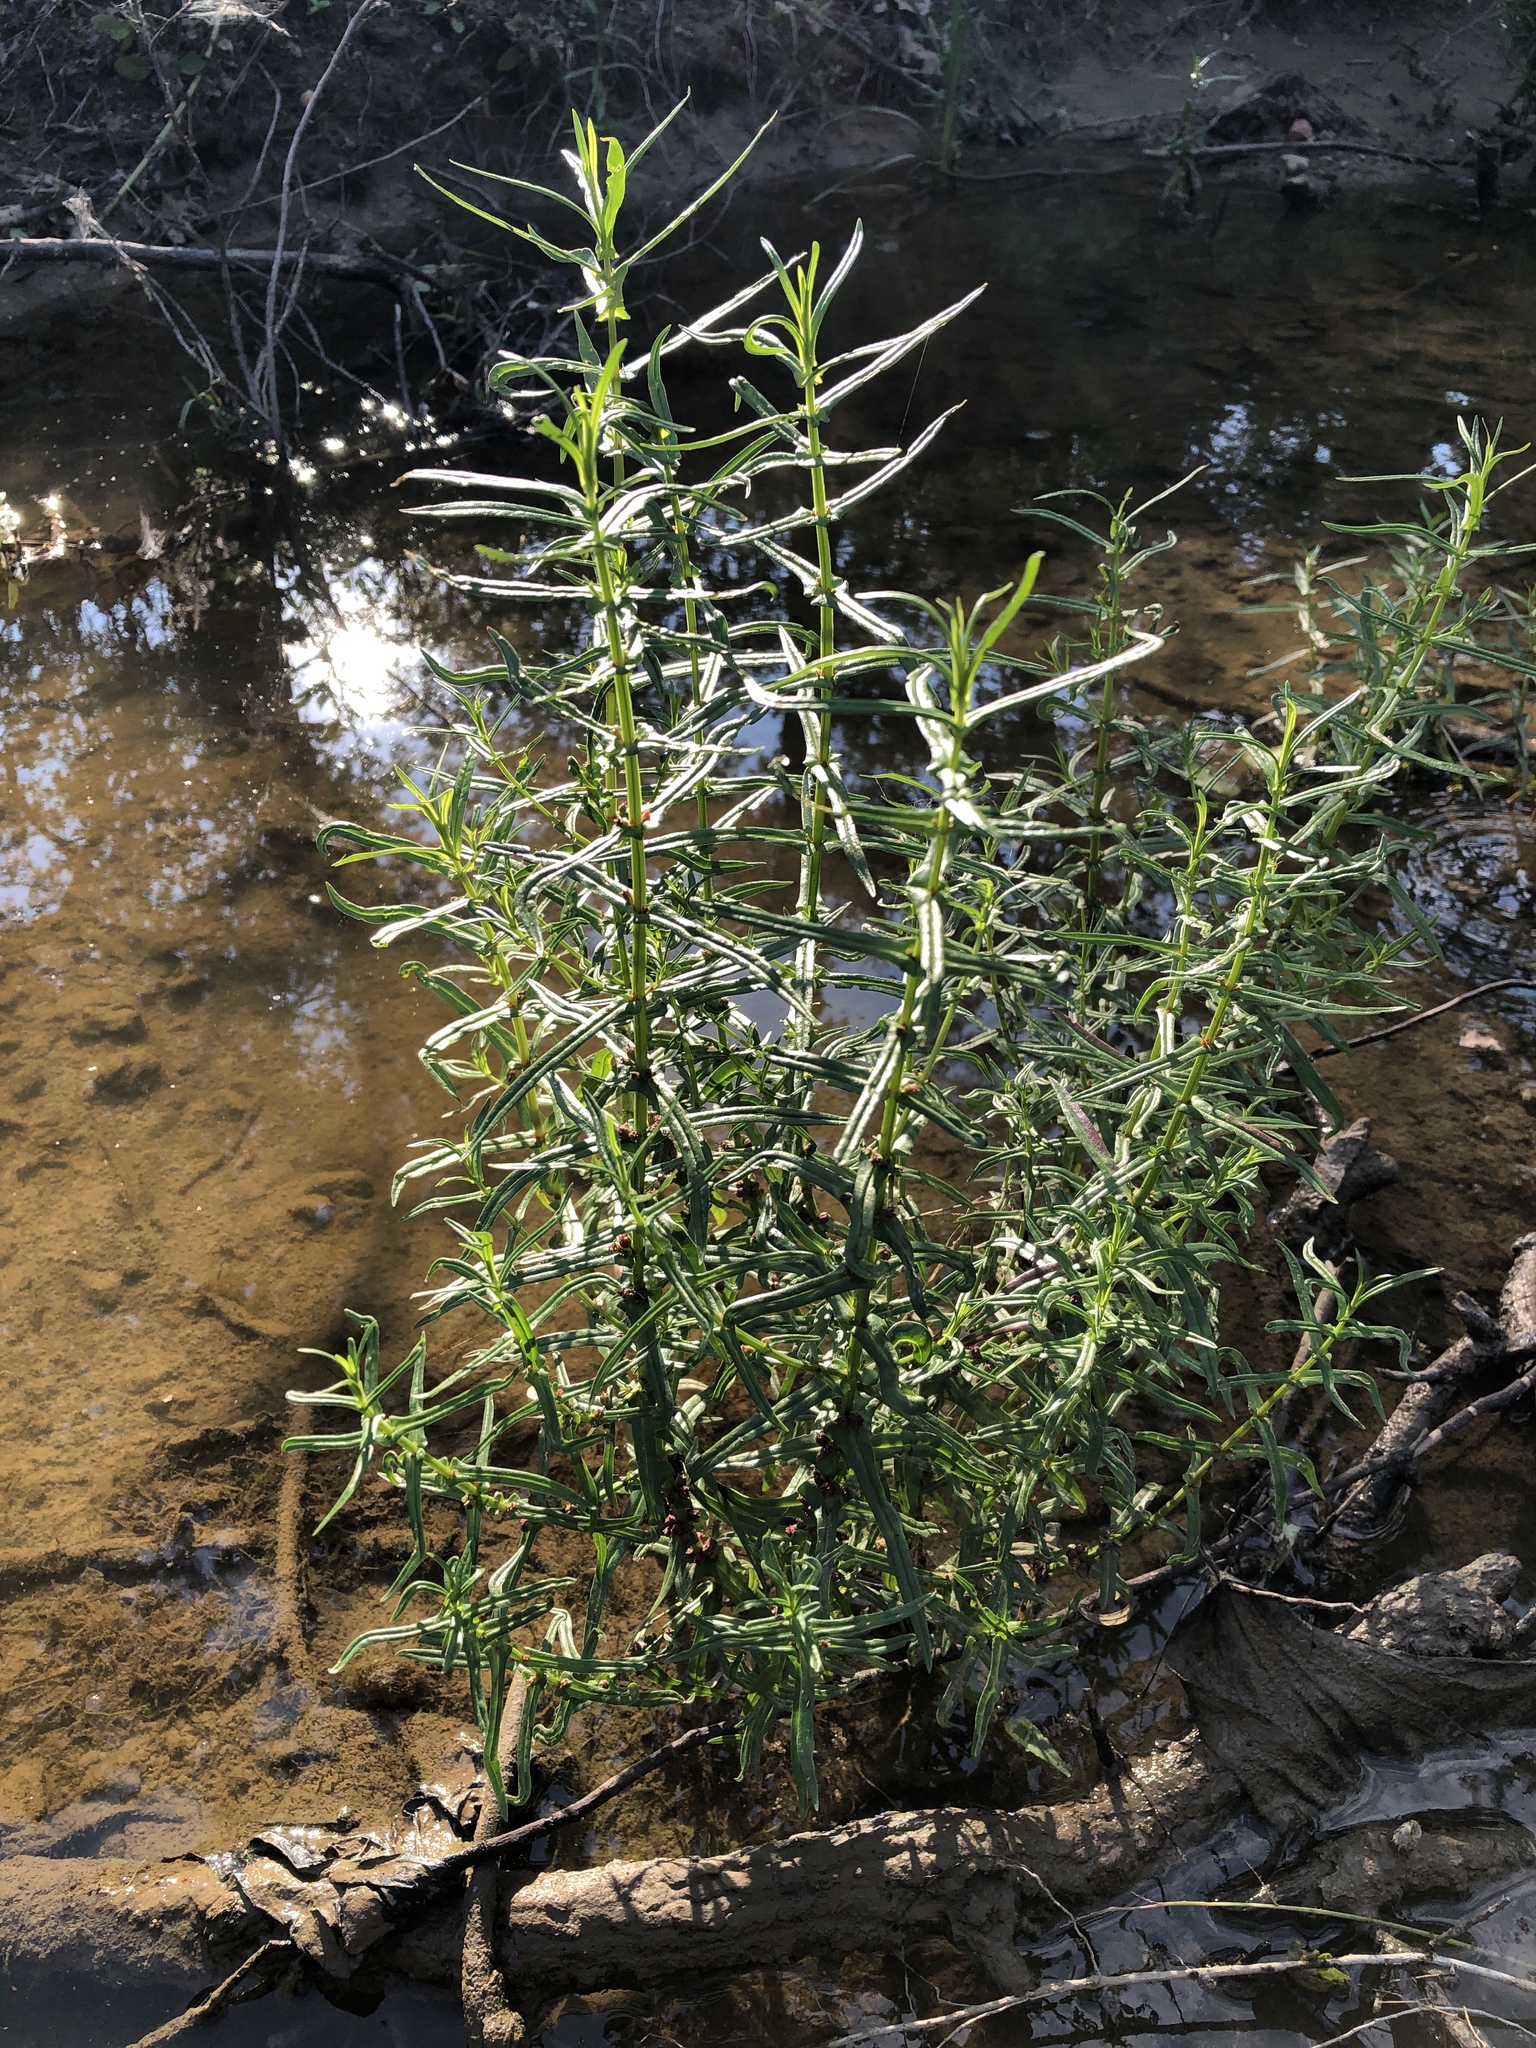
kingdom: Plantae
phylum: Tracheophyta
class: Magnoliopsida
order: Myrtales
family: Lythraceae
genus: Ammannia
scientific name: Ammannia coccinea
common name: Valley redstem
